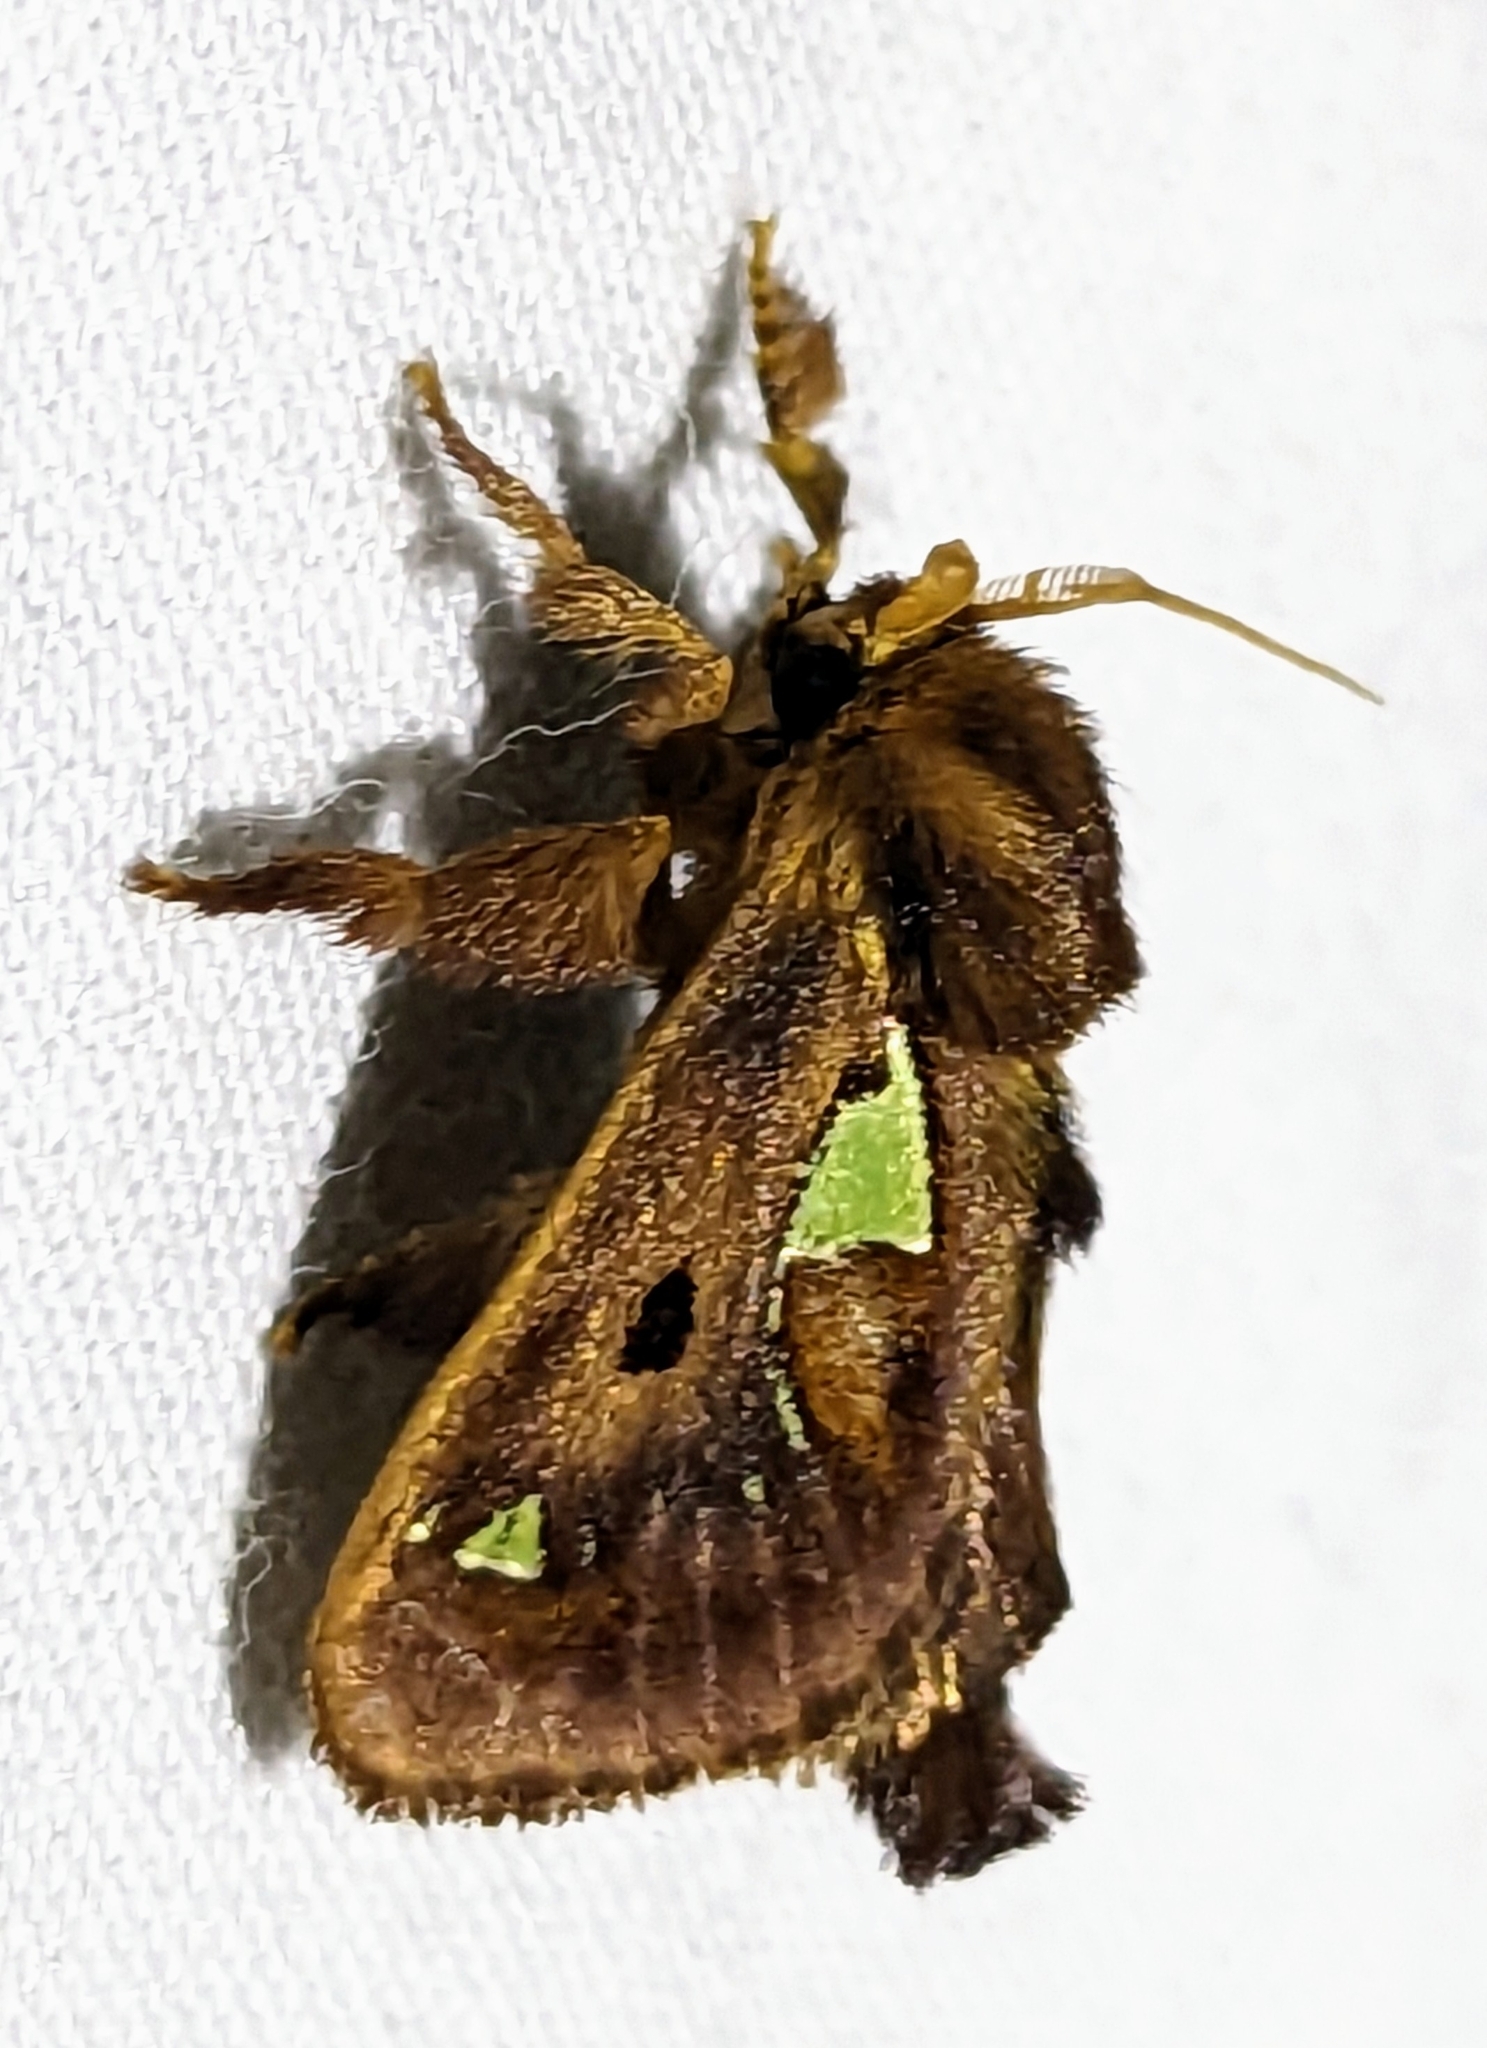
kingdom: Animalia
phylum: Arthropoda
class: Insecta
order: Lepidoptera
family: Limacodidae
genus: Euclea
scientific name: Euclea delphinii
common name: Spiny oak-slug moth
